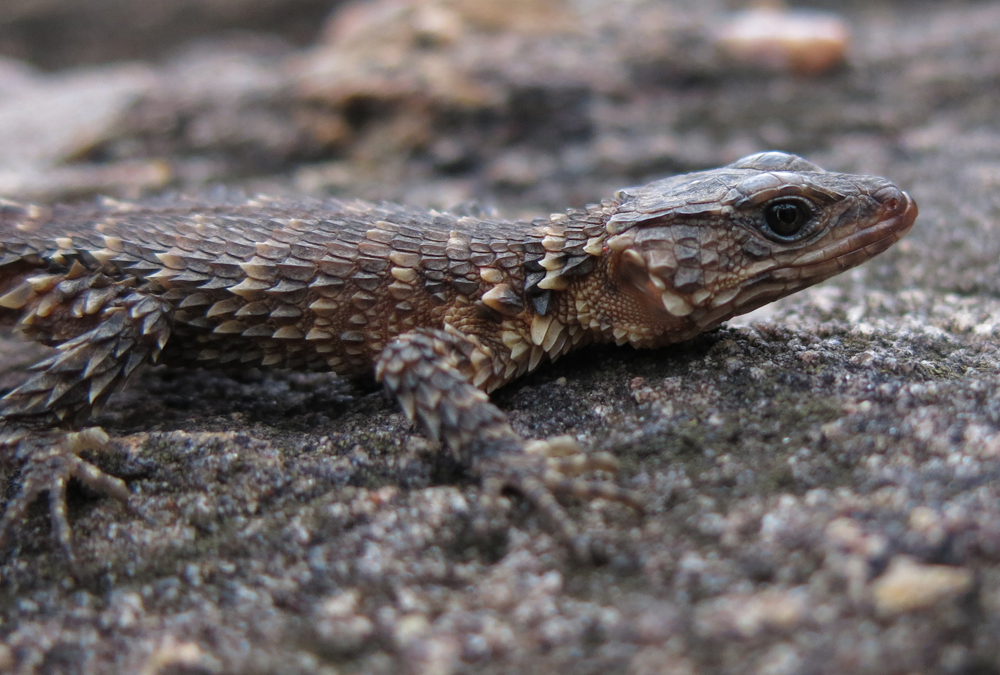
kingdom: Animalia
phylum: Chordata
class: Squamata
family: Cordylidae
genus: Smaug
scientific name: Smaug breyeri
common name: Waterberg dragon lizard
